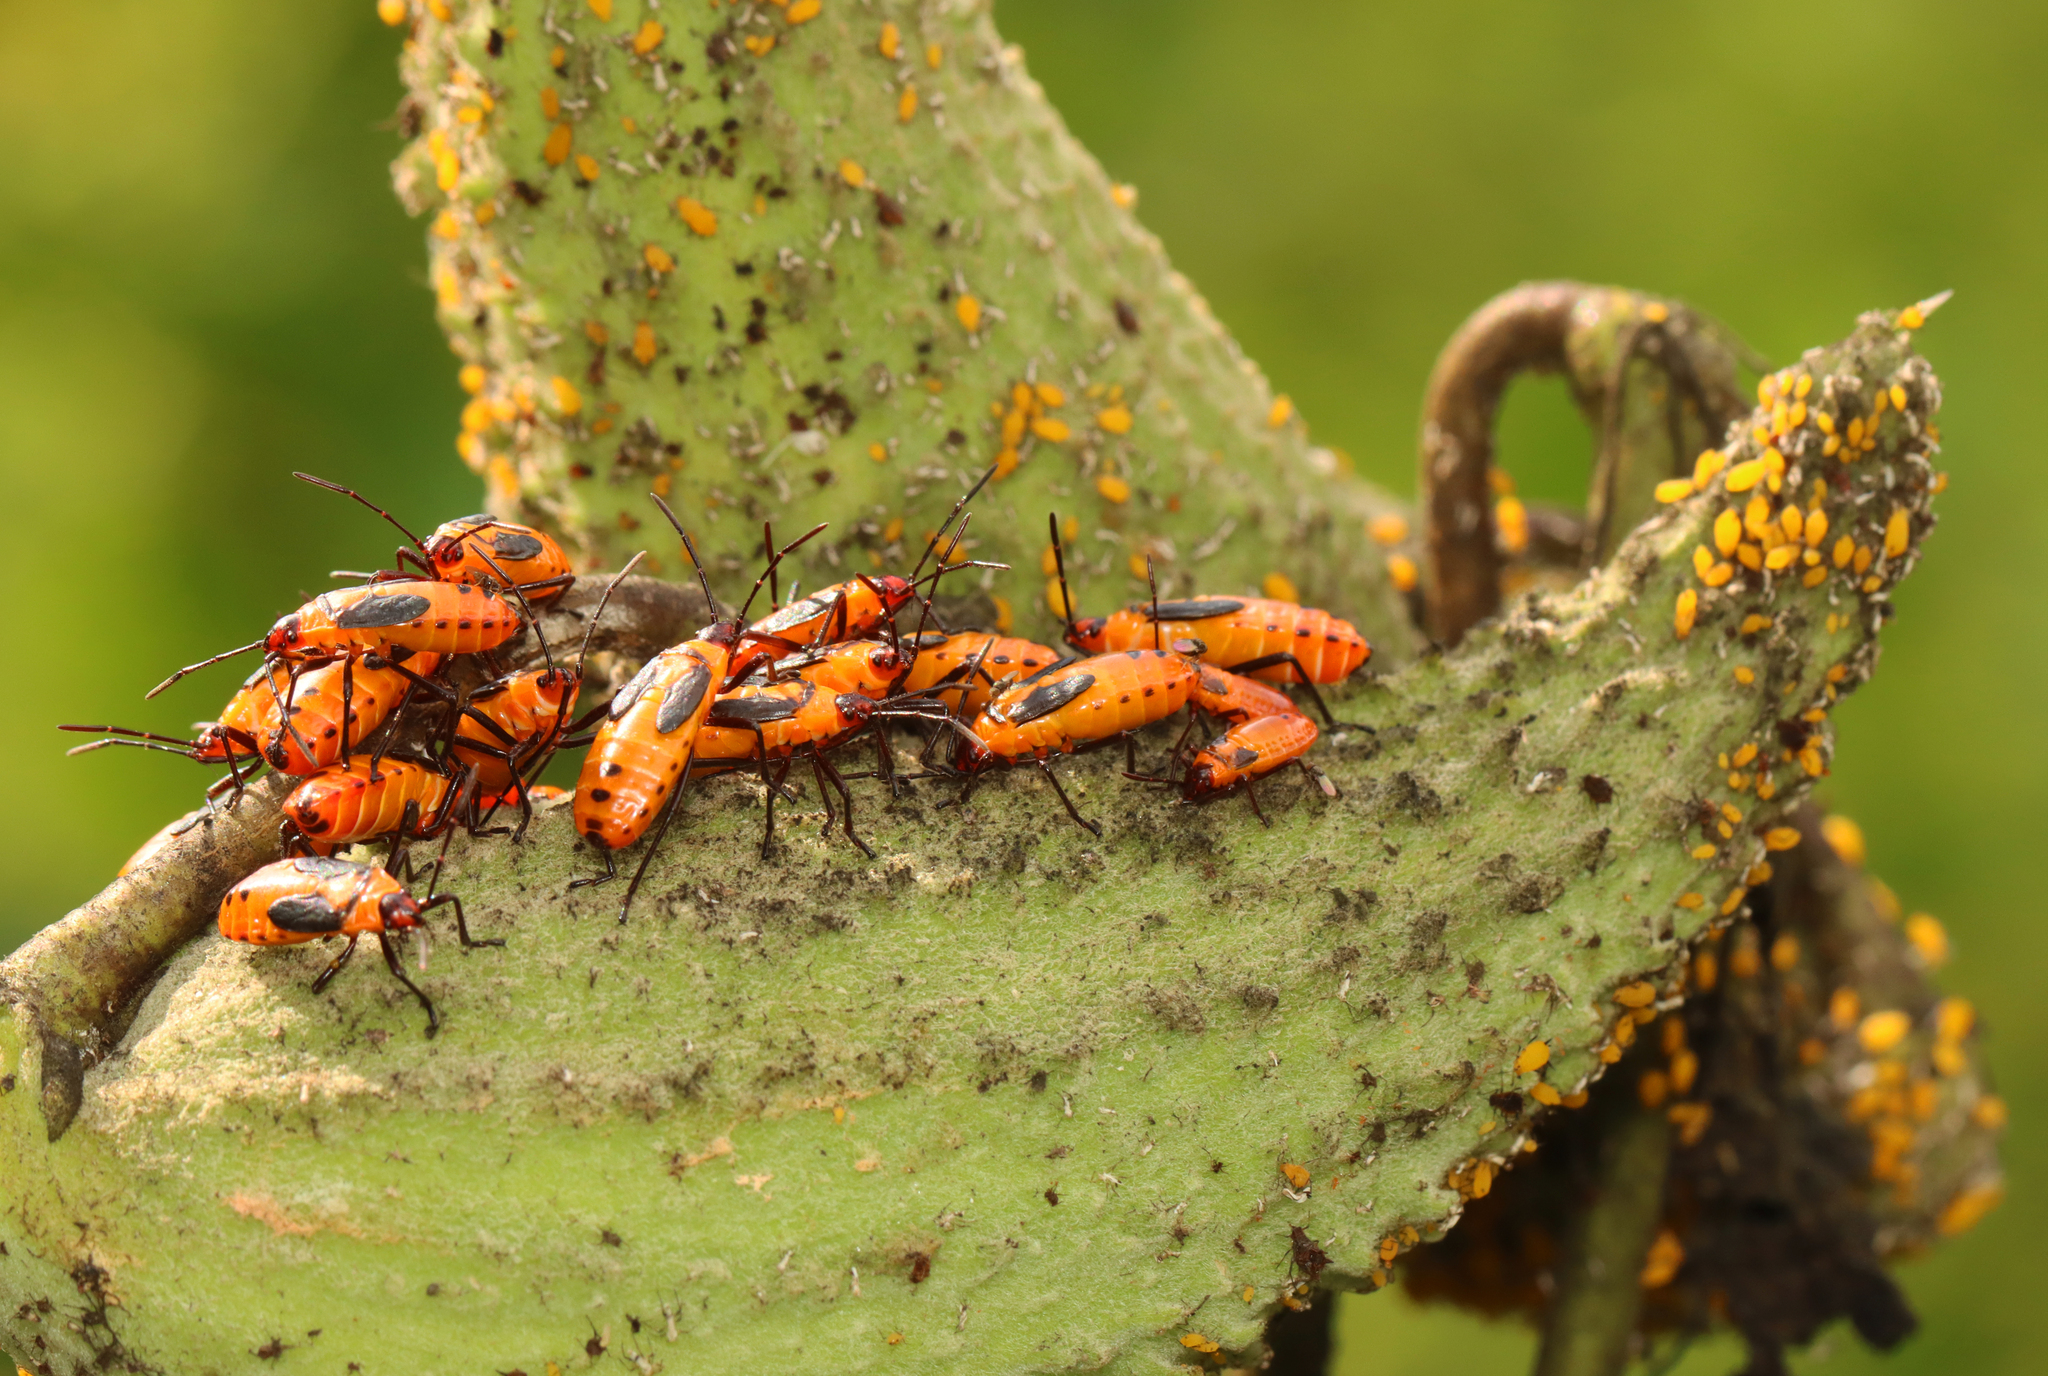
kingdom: Animalia
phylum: Arthropoda
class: Insecta
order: Hemiptera
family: Lygaeidae
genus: Oncopeltus
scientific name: Oncopeltus fasciatus
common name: Large milkweed bug
